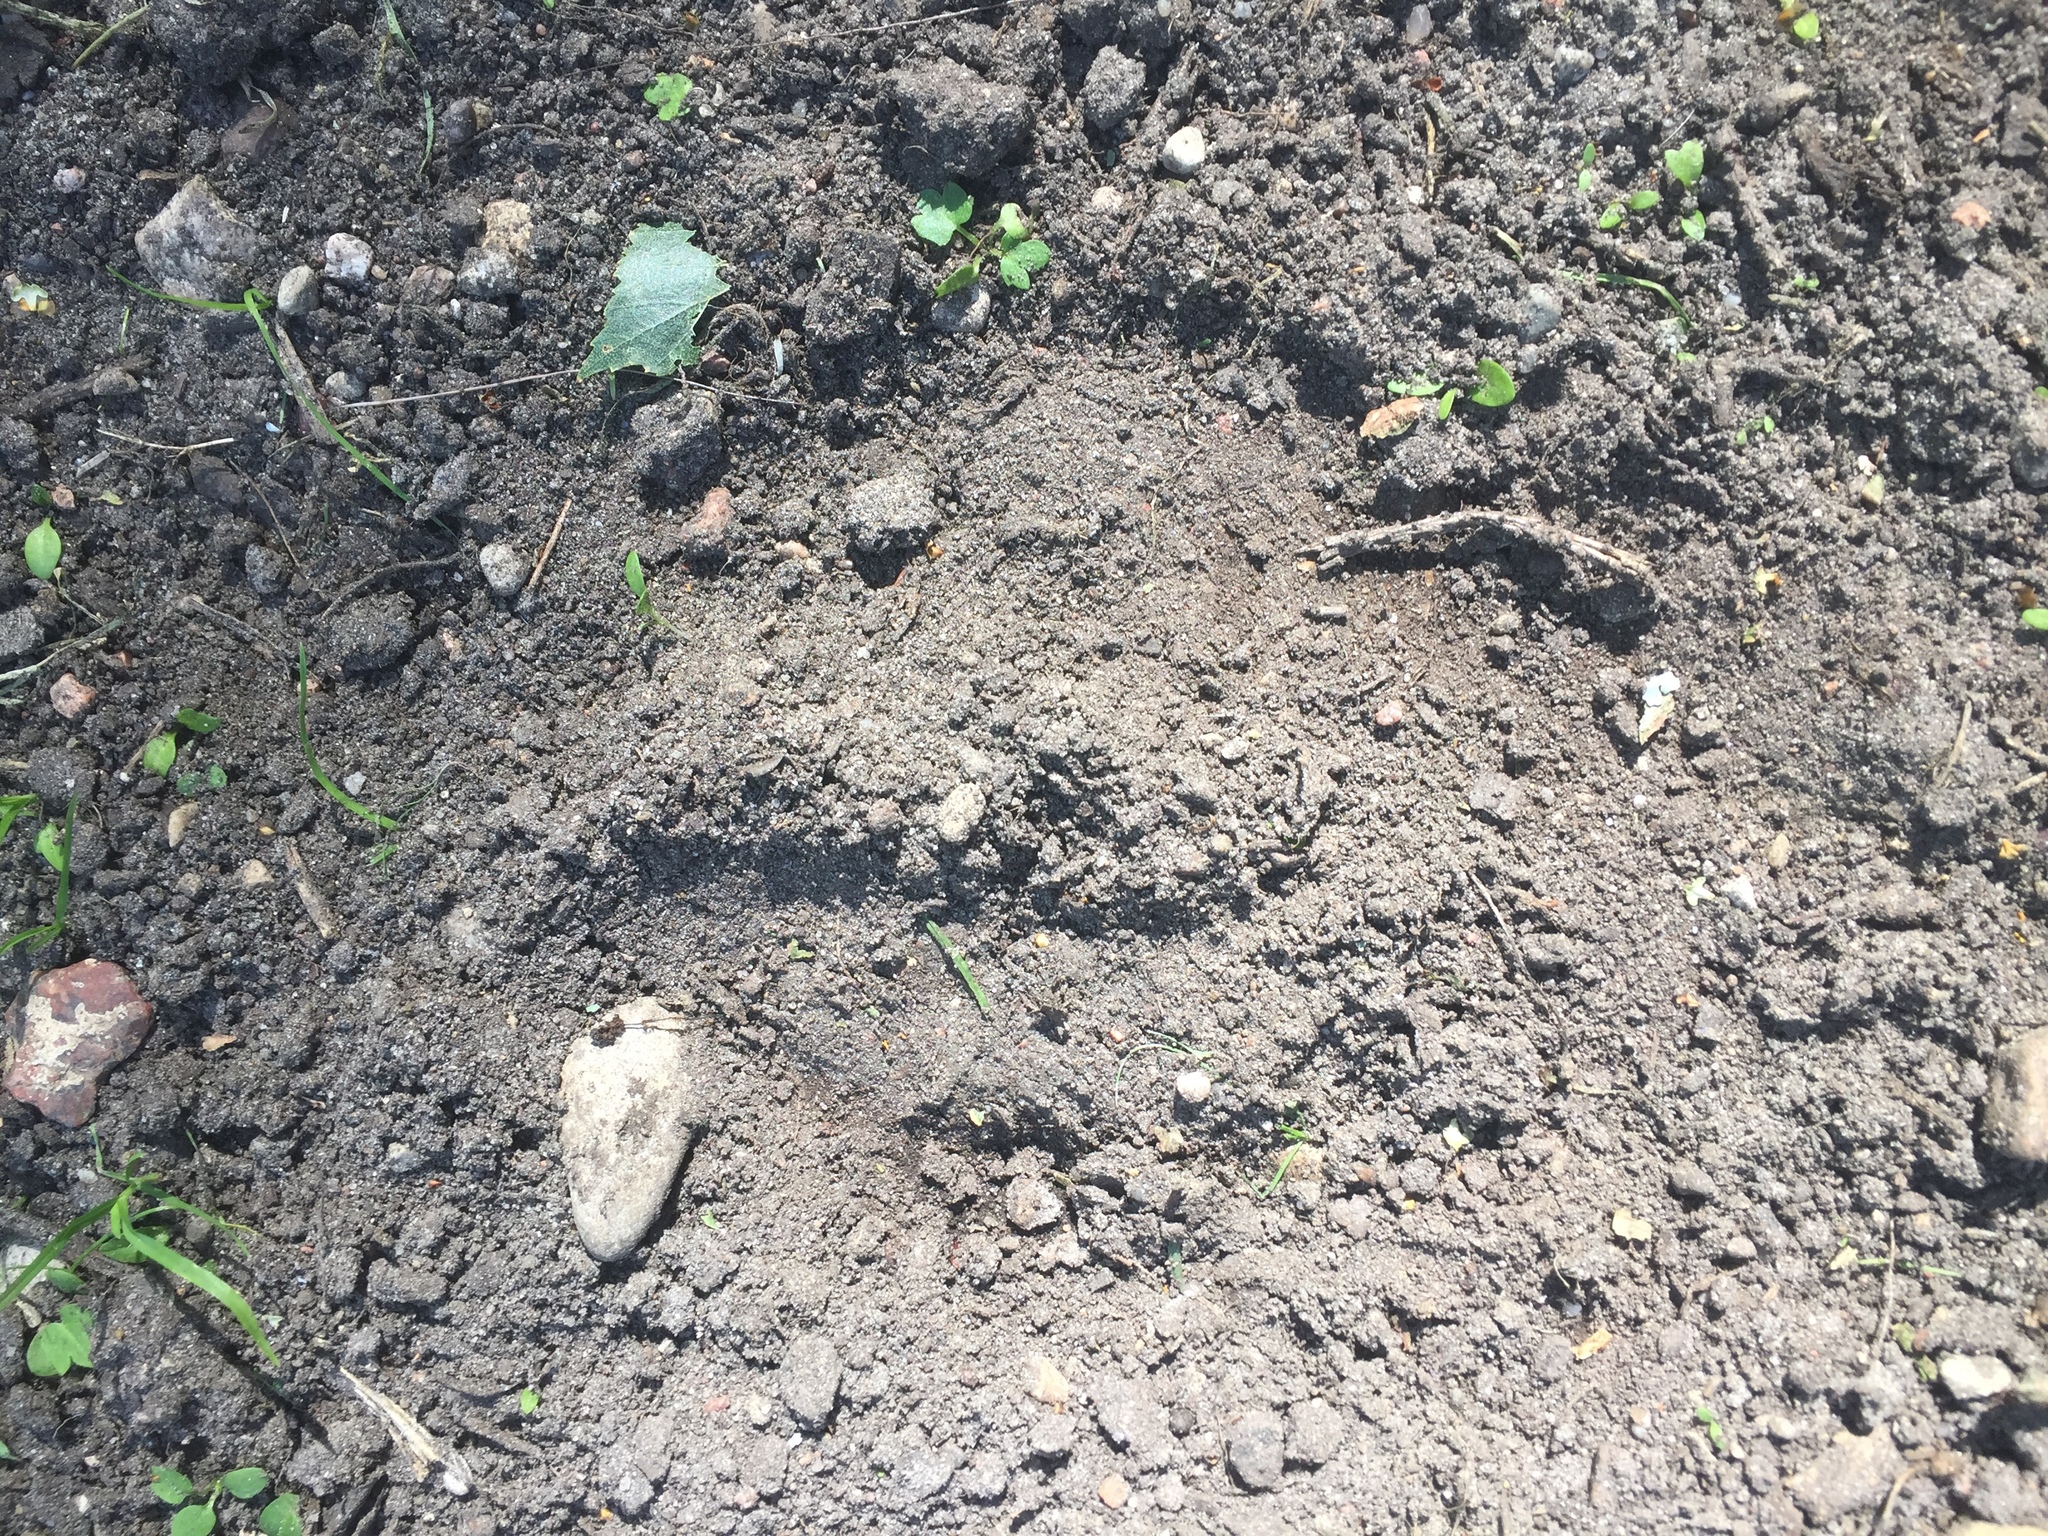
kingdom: Animalia
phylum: Chordata
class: Mammalia
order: Artiodactyla
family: Bovidae
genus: Bison
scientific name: Bison bonasus
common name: European bison
